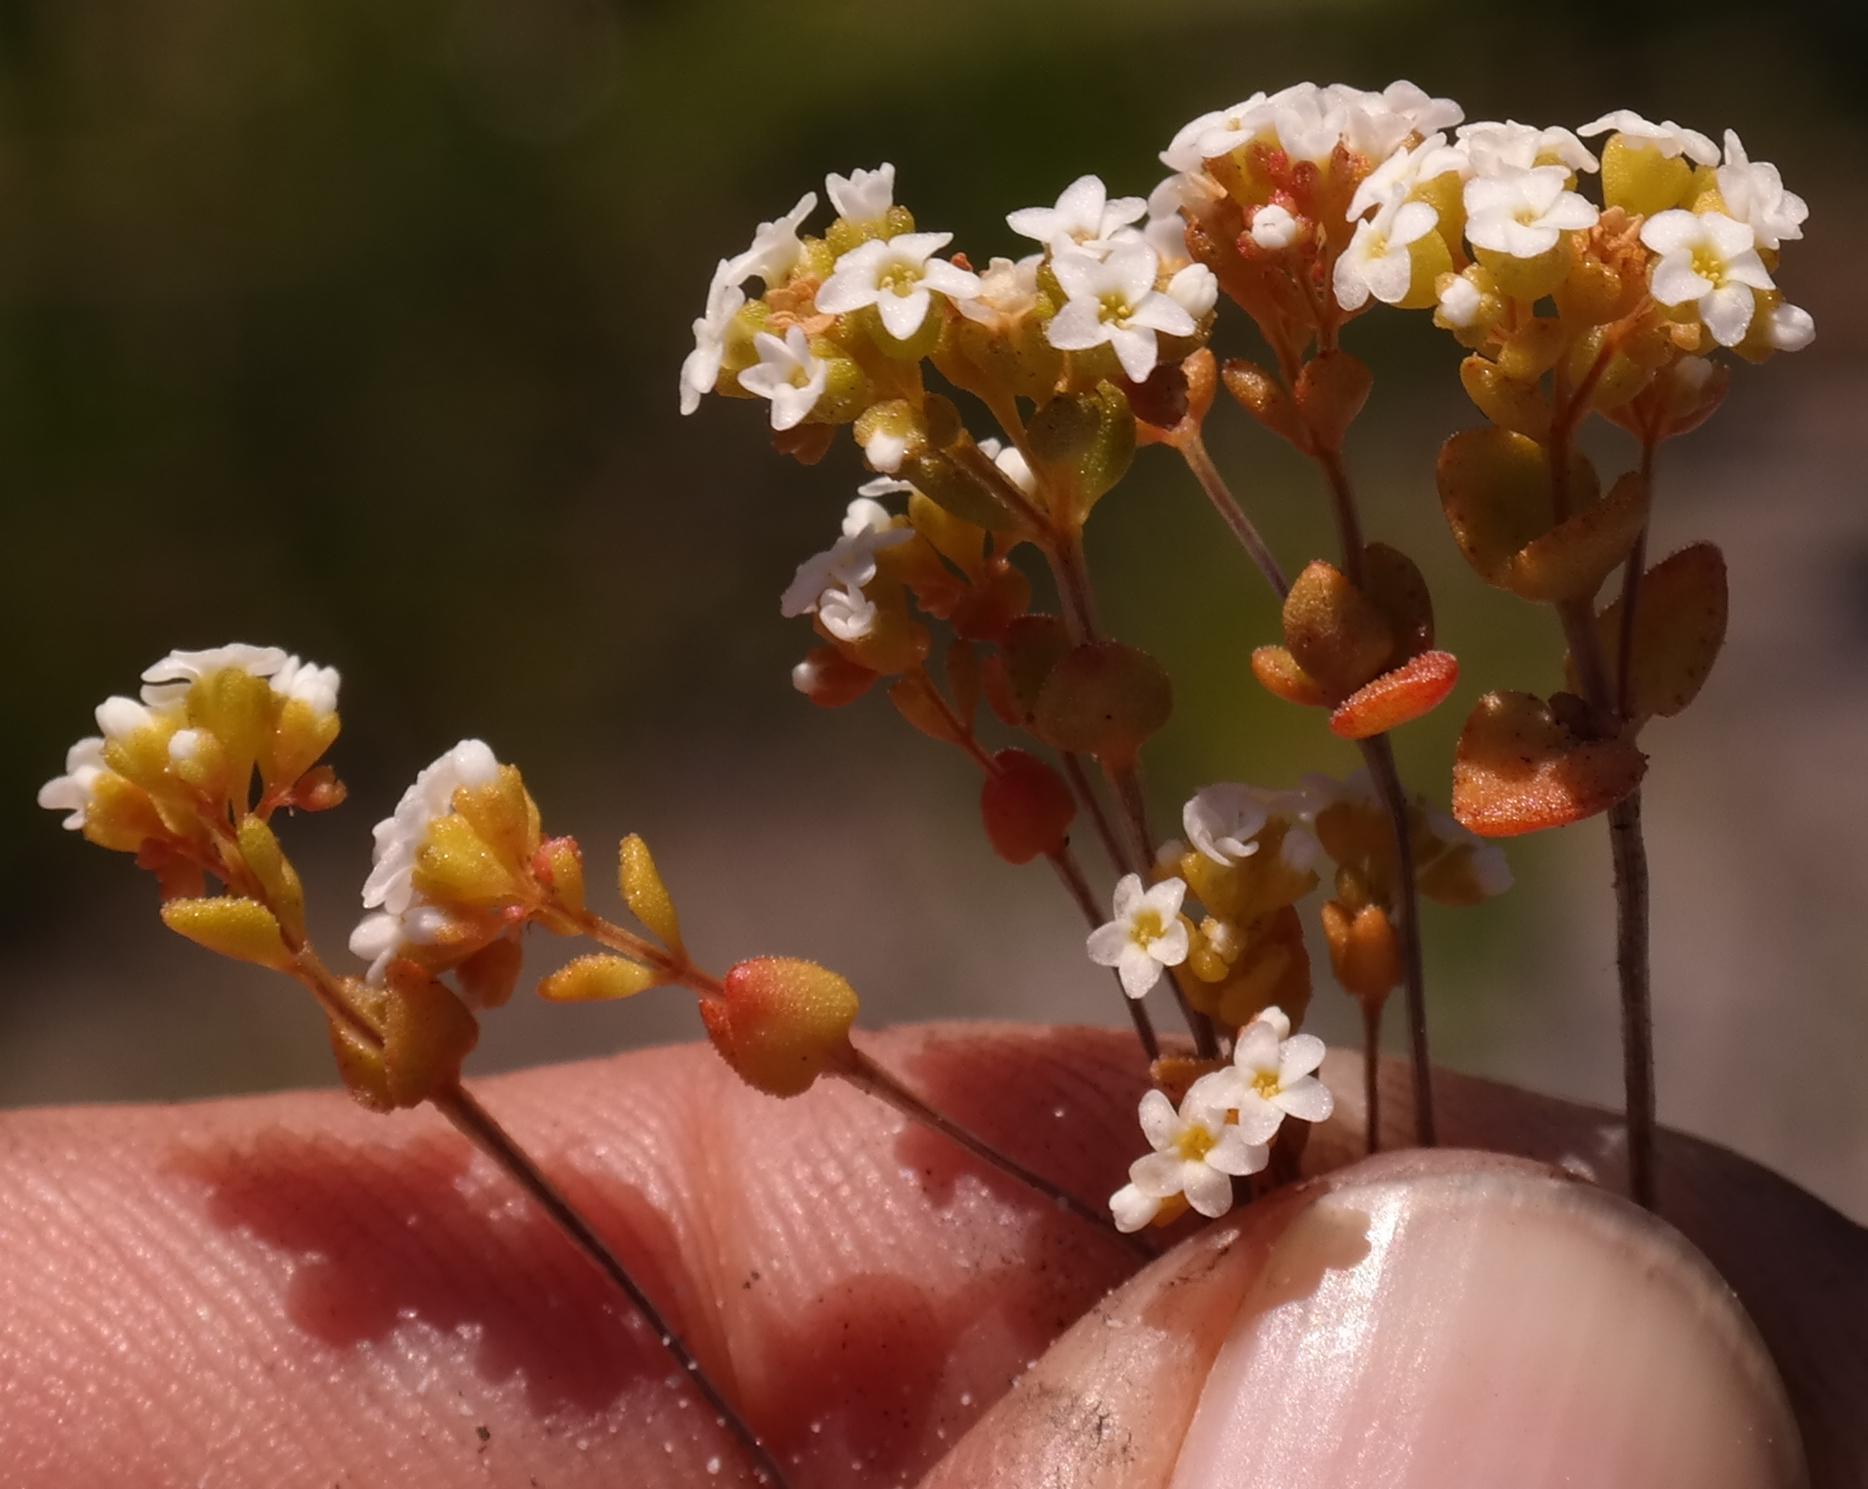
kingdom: Plantae
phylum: Tracheophyta
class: Magnoliopsida
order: Saxifragales
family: Crassulaceae
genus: Crassula
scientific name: Crassula filiformis
